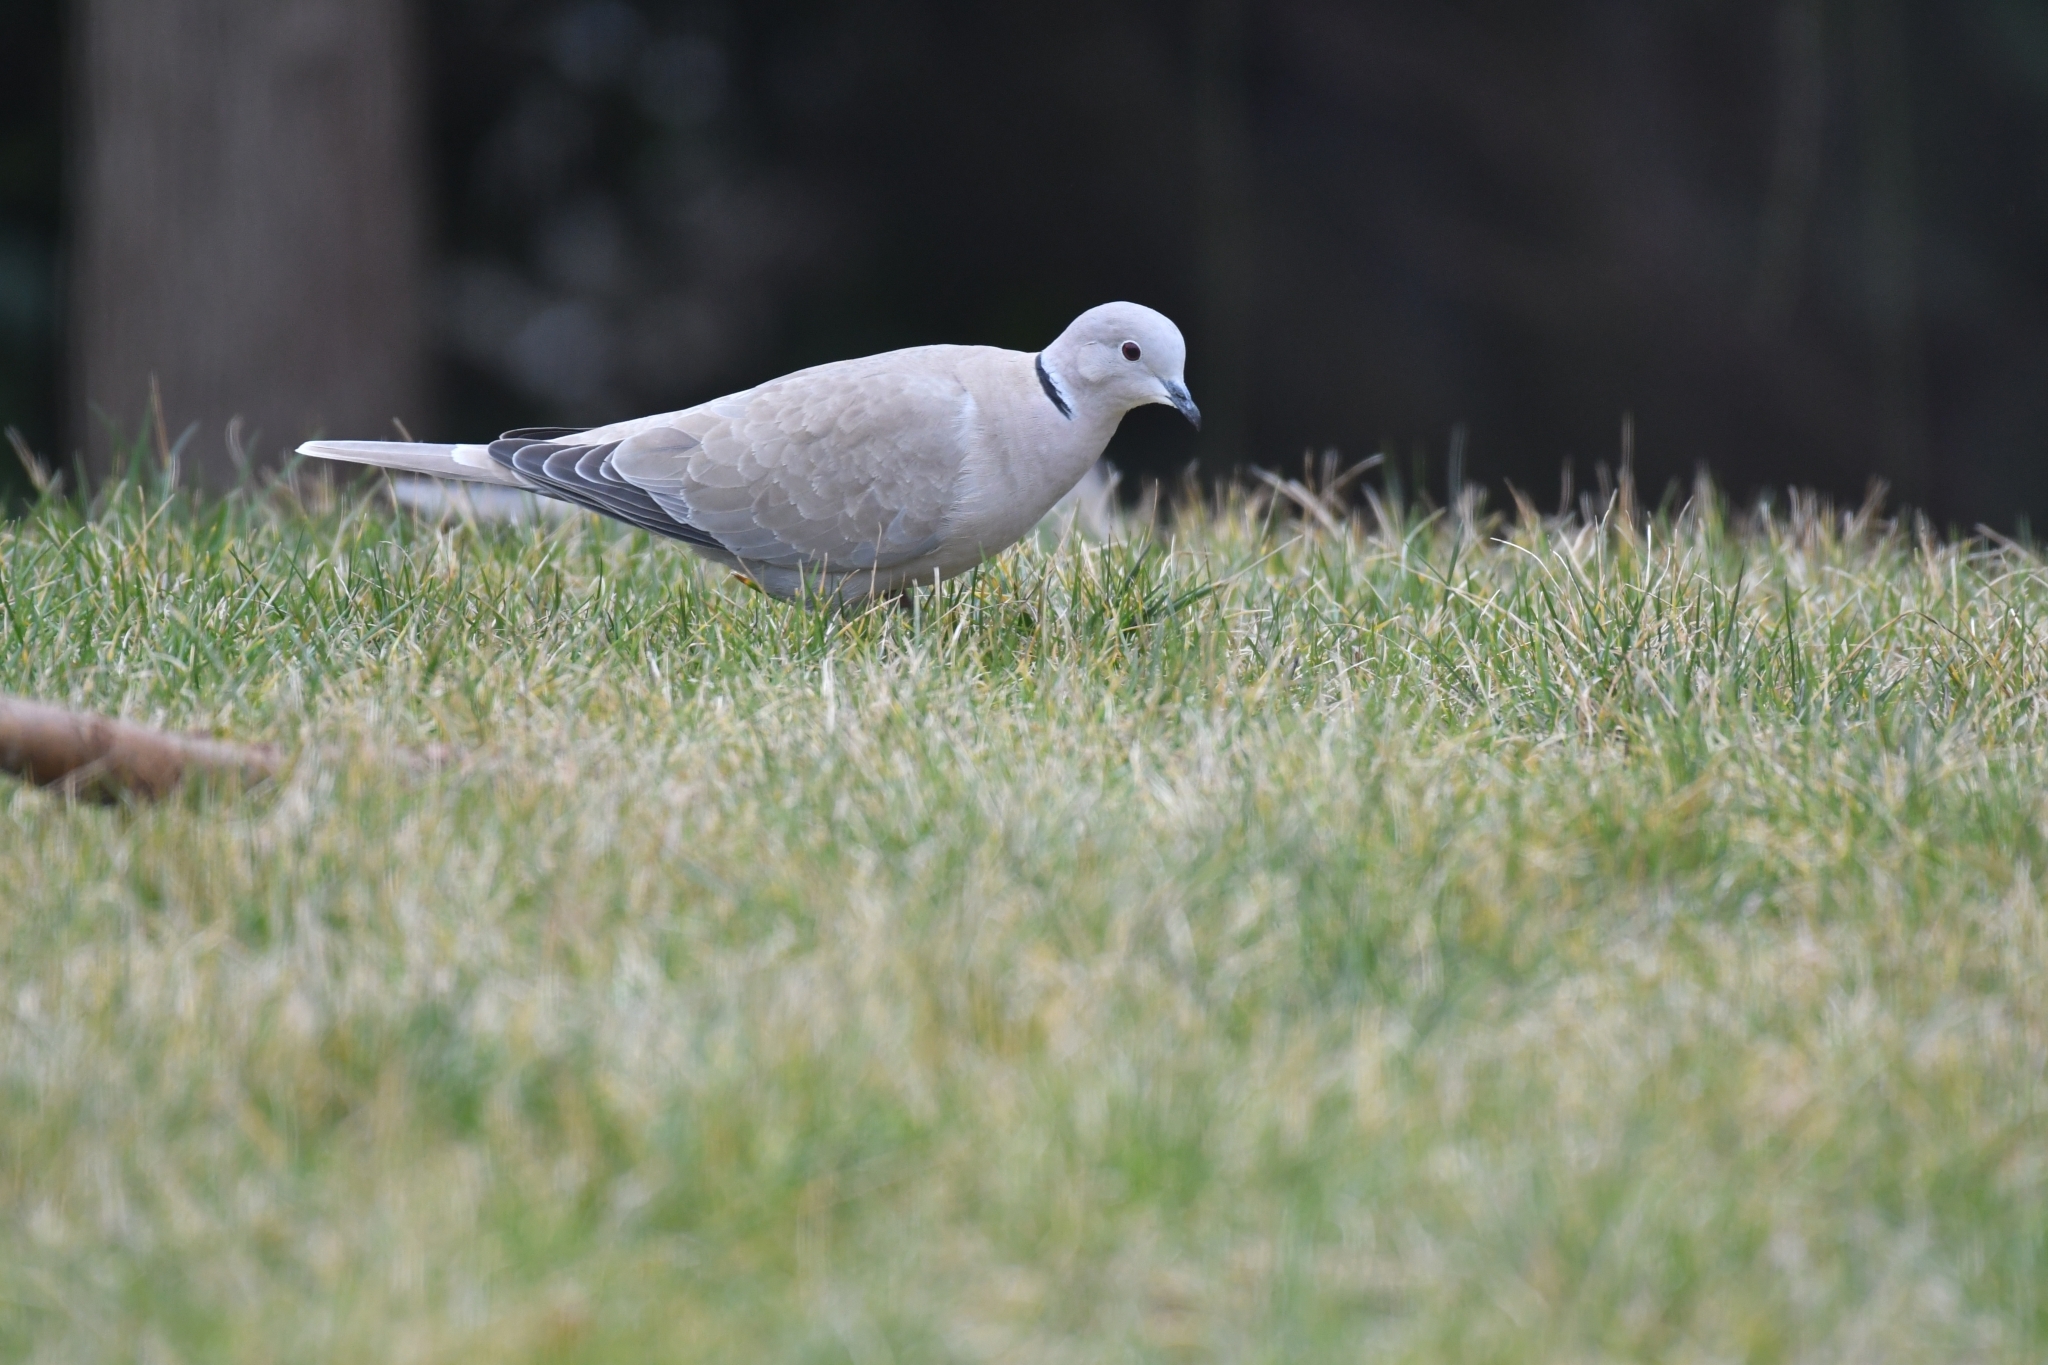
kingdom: Animalia
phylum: Chordata
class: Aves
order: Columbiformes
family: Columbidae
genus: Streptopelia
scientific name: Streptopelia decaocto
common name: Eurasian collared dove
